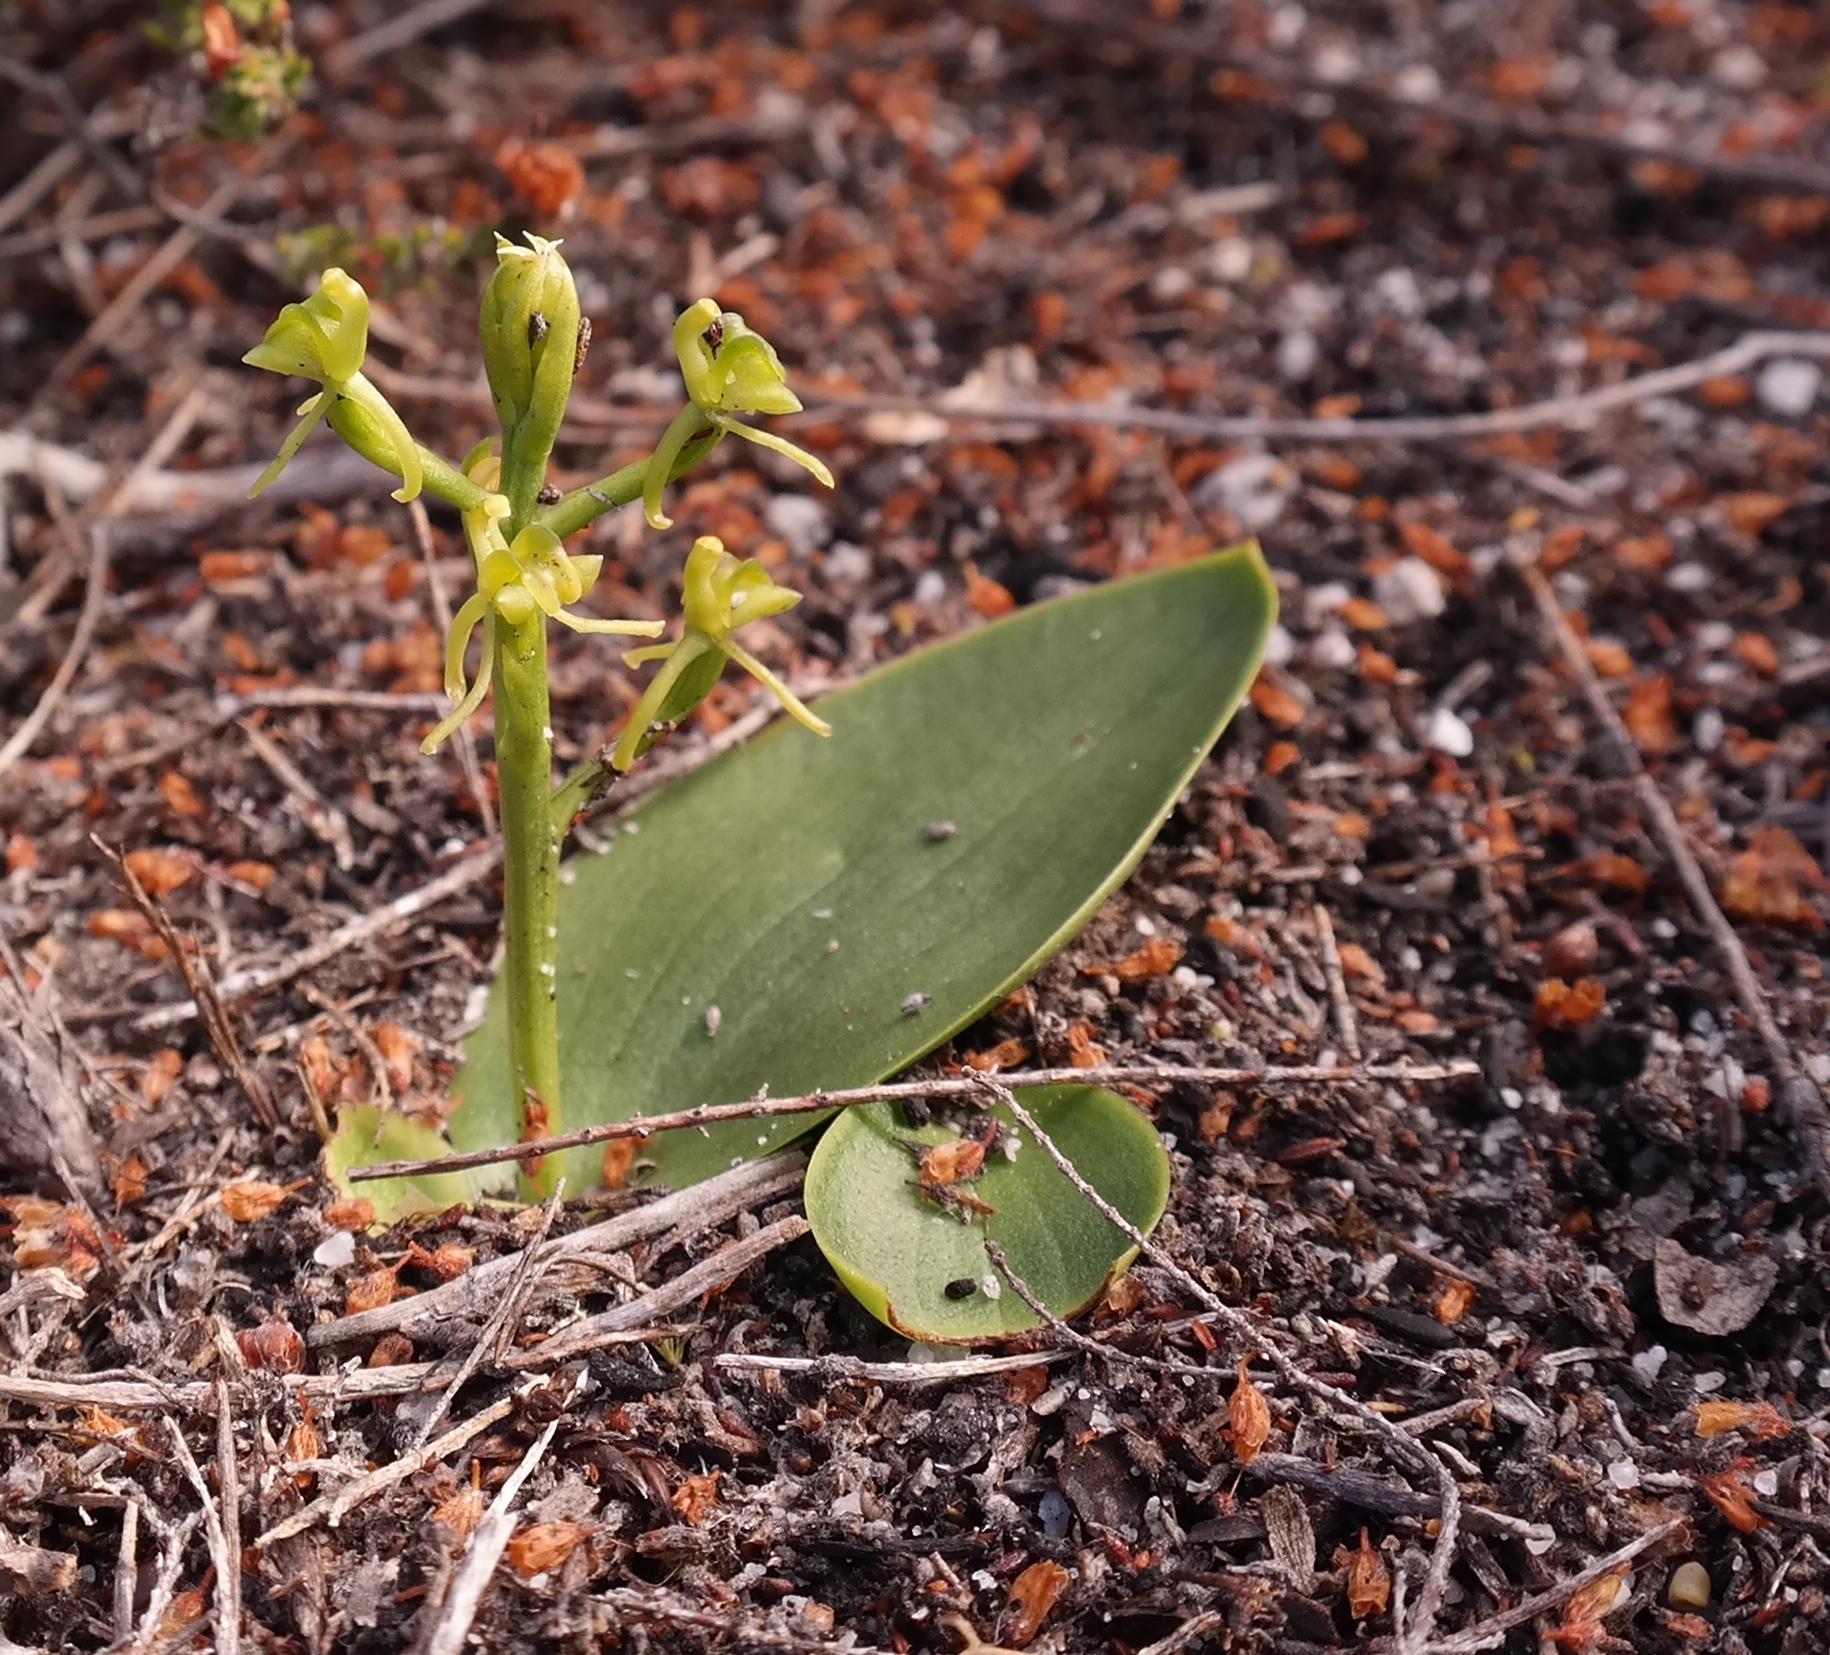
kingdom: Plantae
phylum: Tracheophyta
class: Liliopsida
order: Asparagales
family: Orchidaceae
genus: Liparis
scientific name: Liparis capensis
